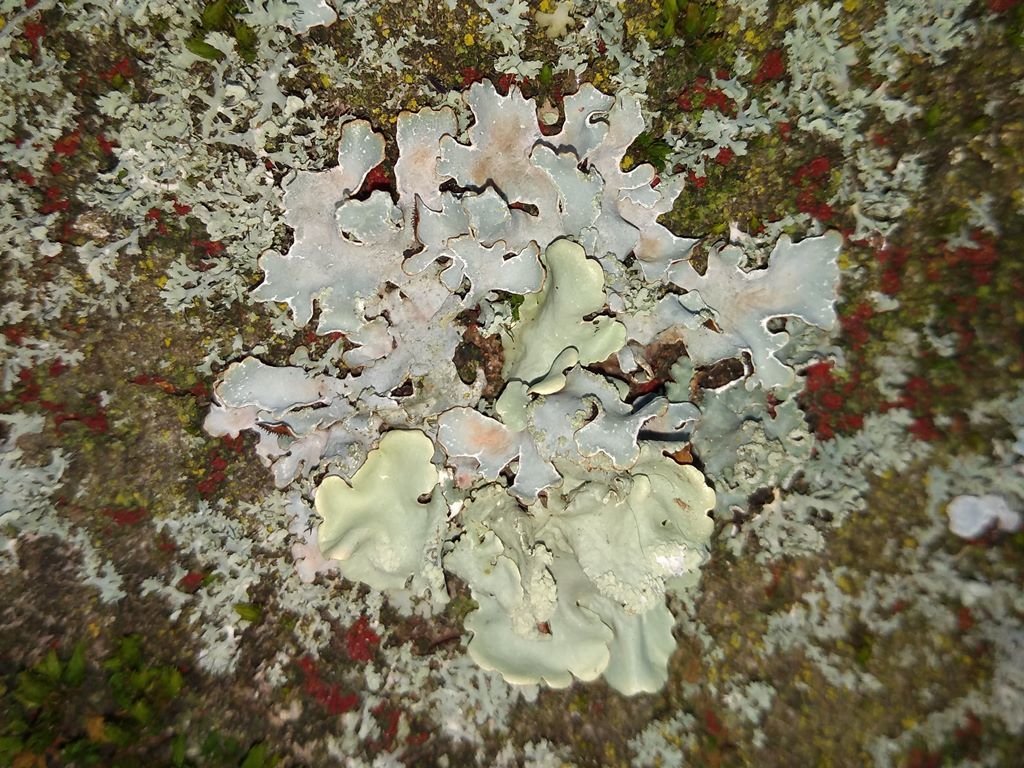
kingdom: Fungi
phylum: Ascomycota
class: Lecanoromycetes
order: Lecanorales
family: Parmeliaceae
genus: Parmelia
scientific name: Parmelia sulcata
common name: Netted shield lichen
